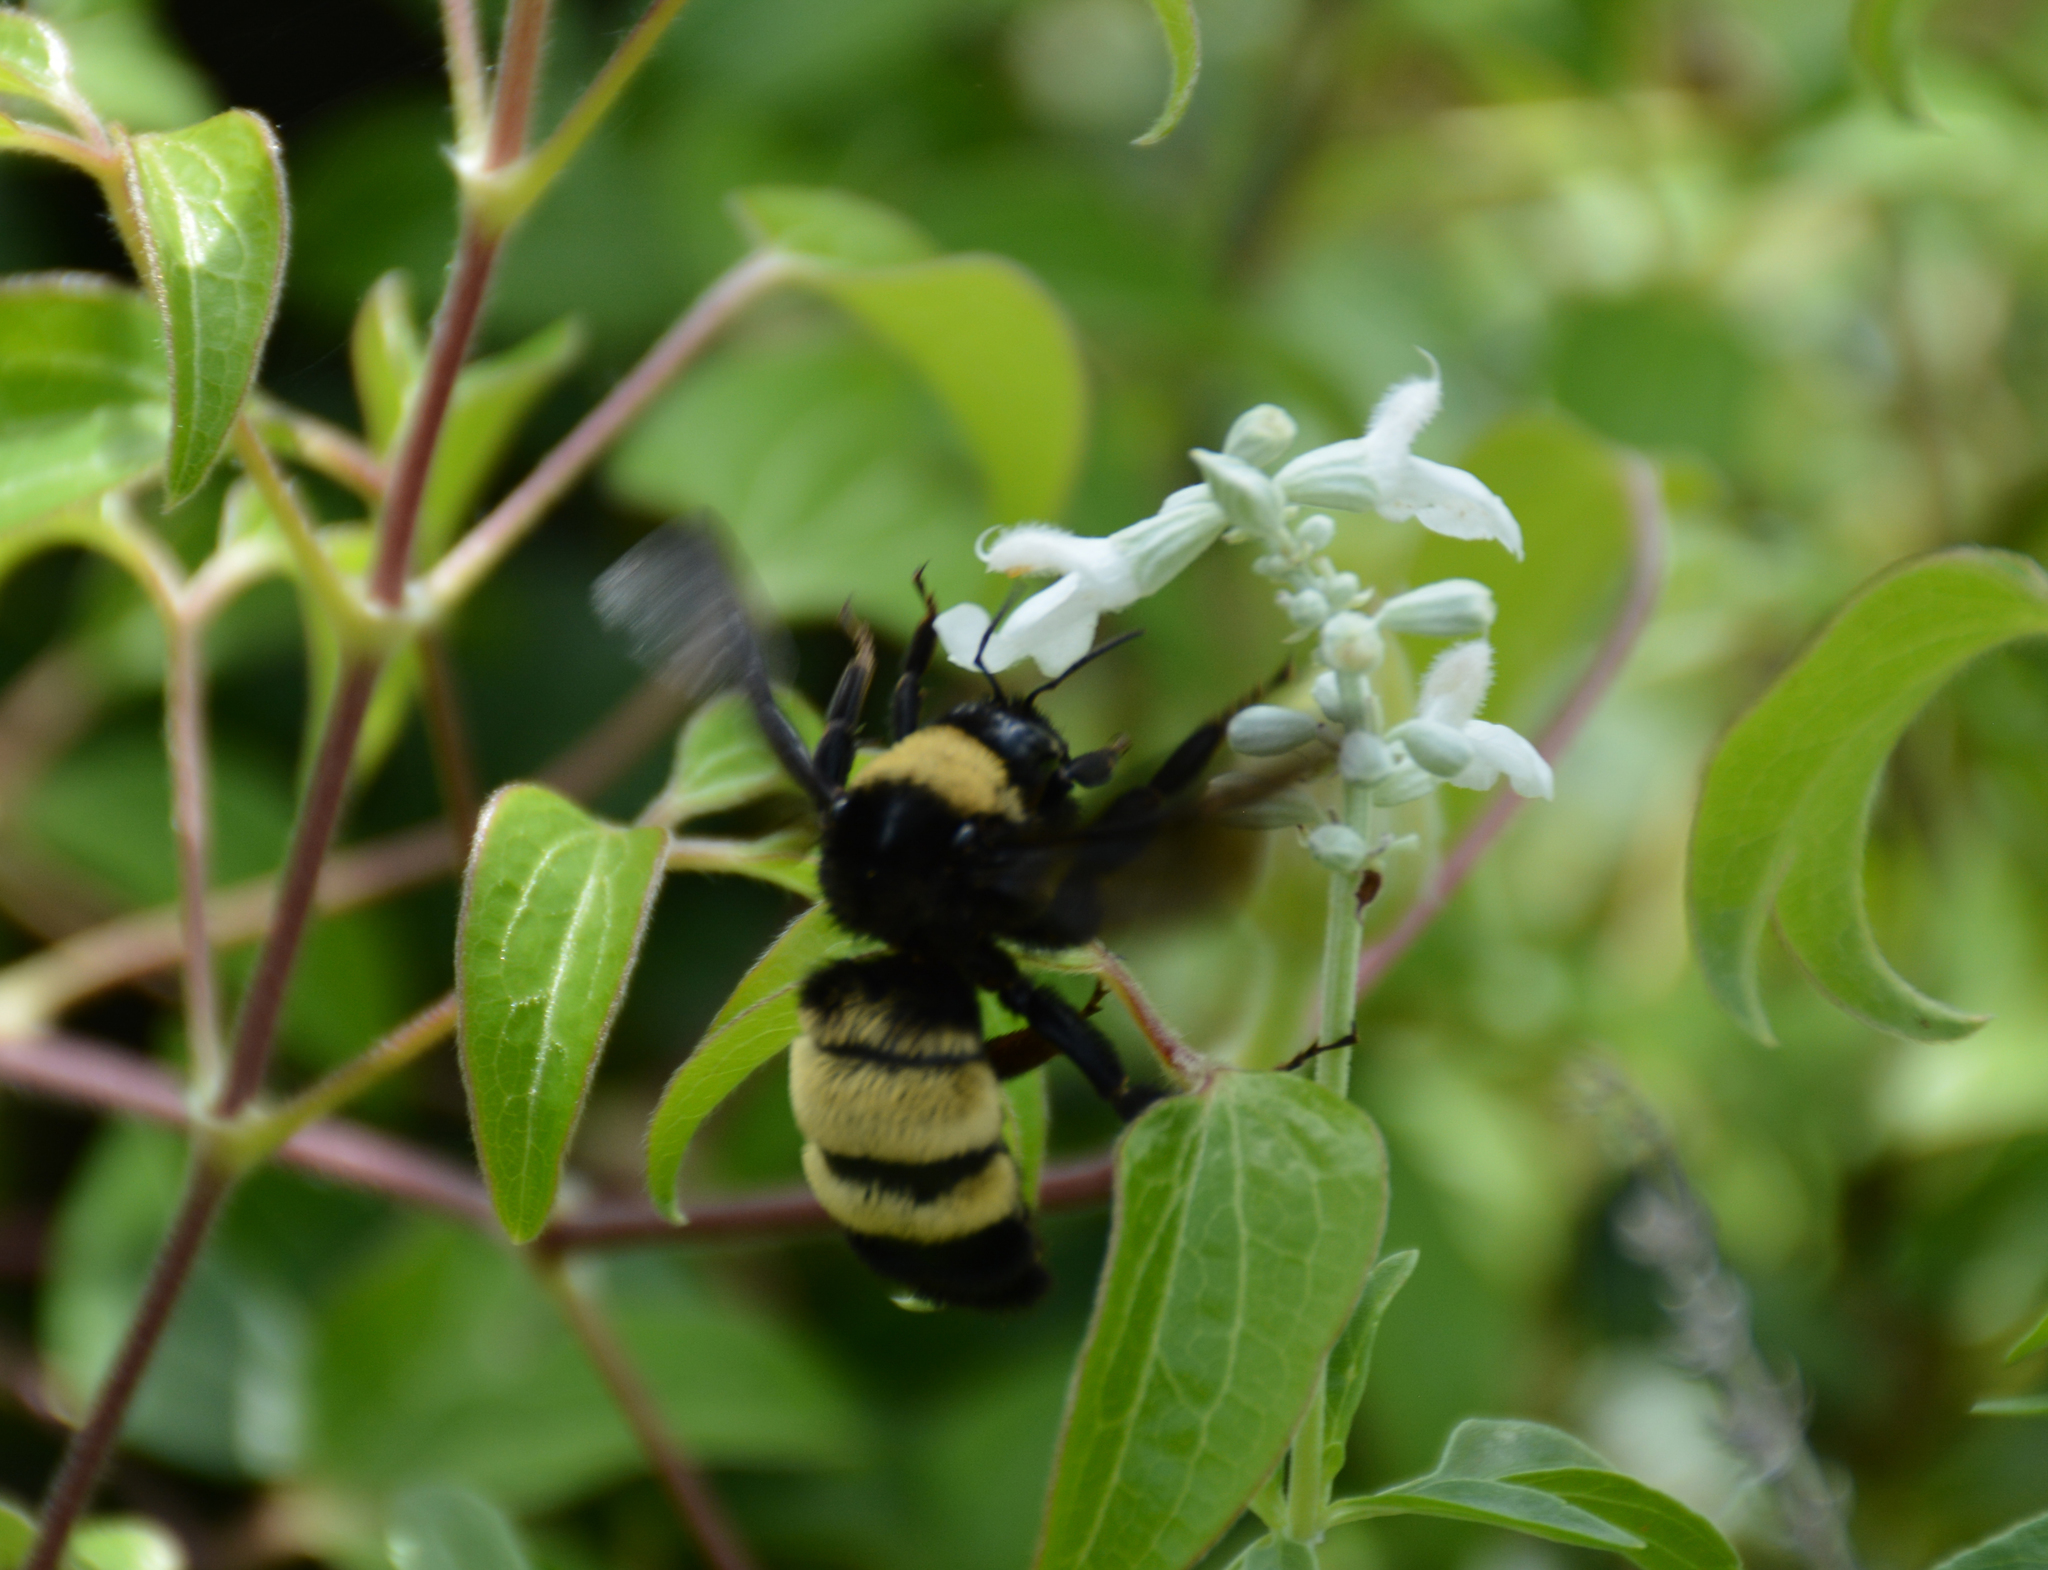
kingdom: Animalia
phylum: Arthropoda
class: Insecta
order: Hymenoptera
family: Apidae
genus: Bombus
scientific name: Bombus pensylvanicus
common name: Bumble bee
